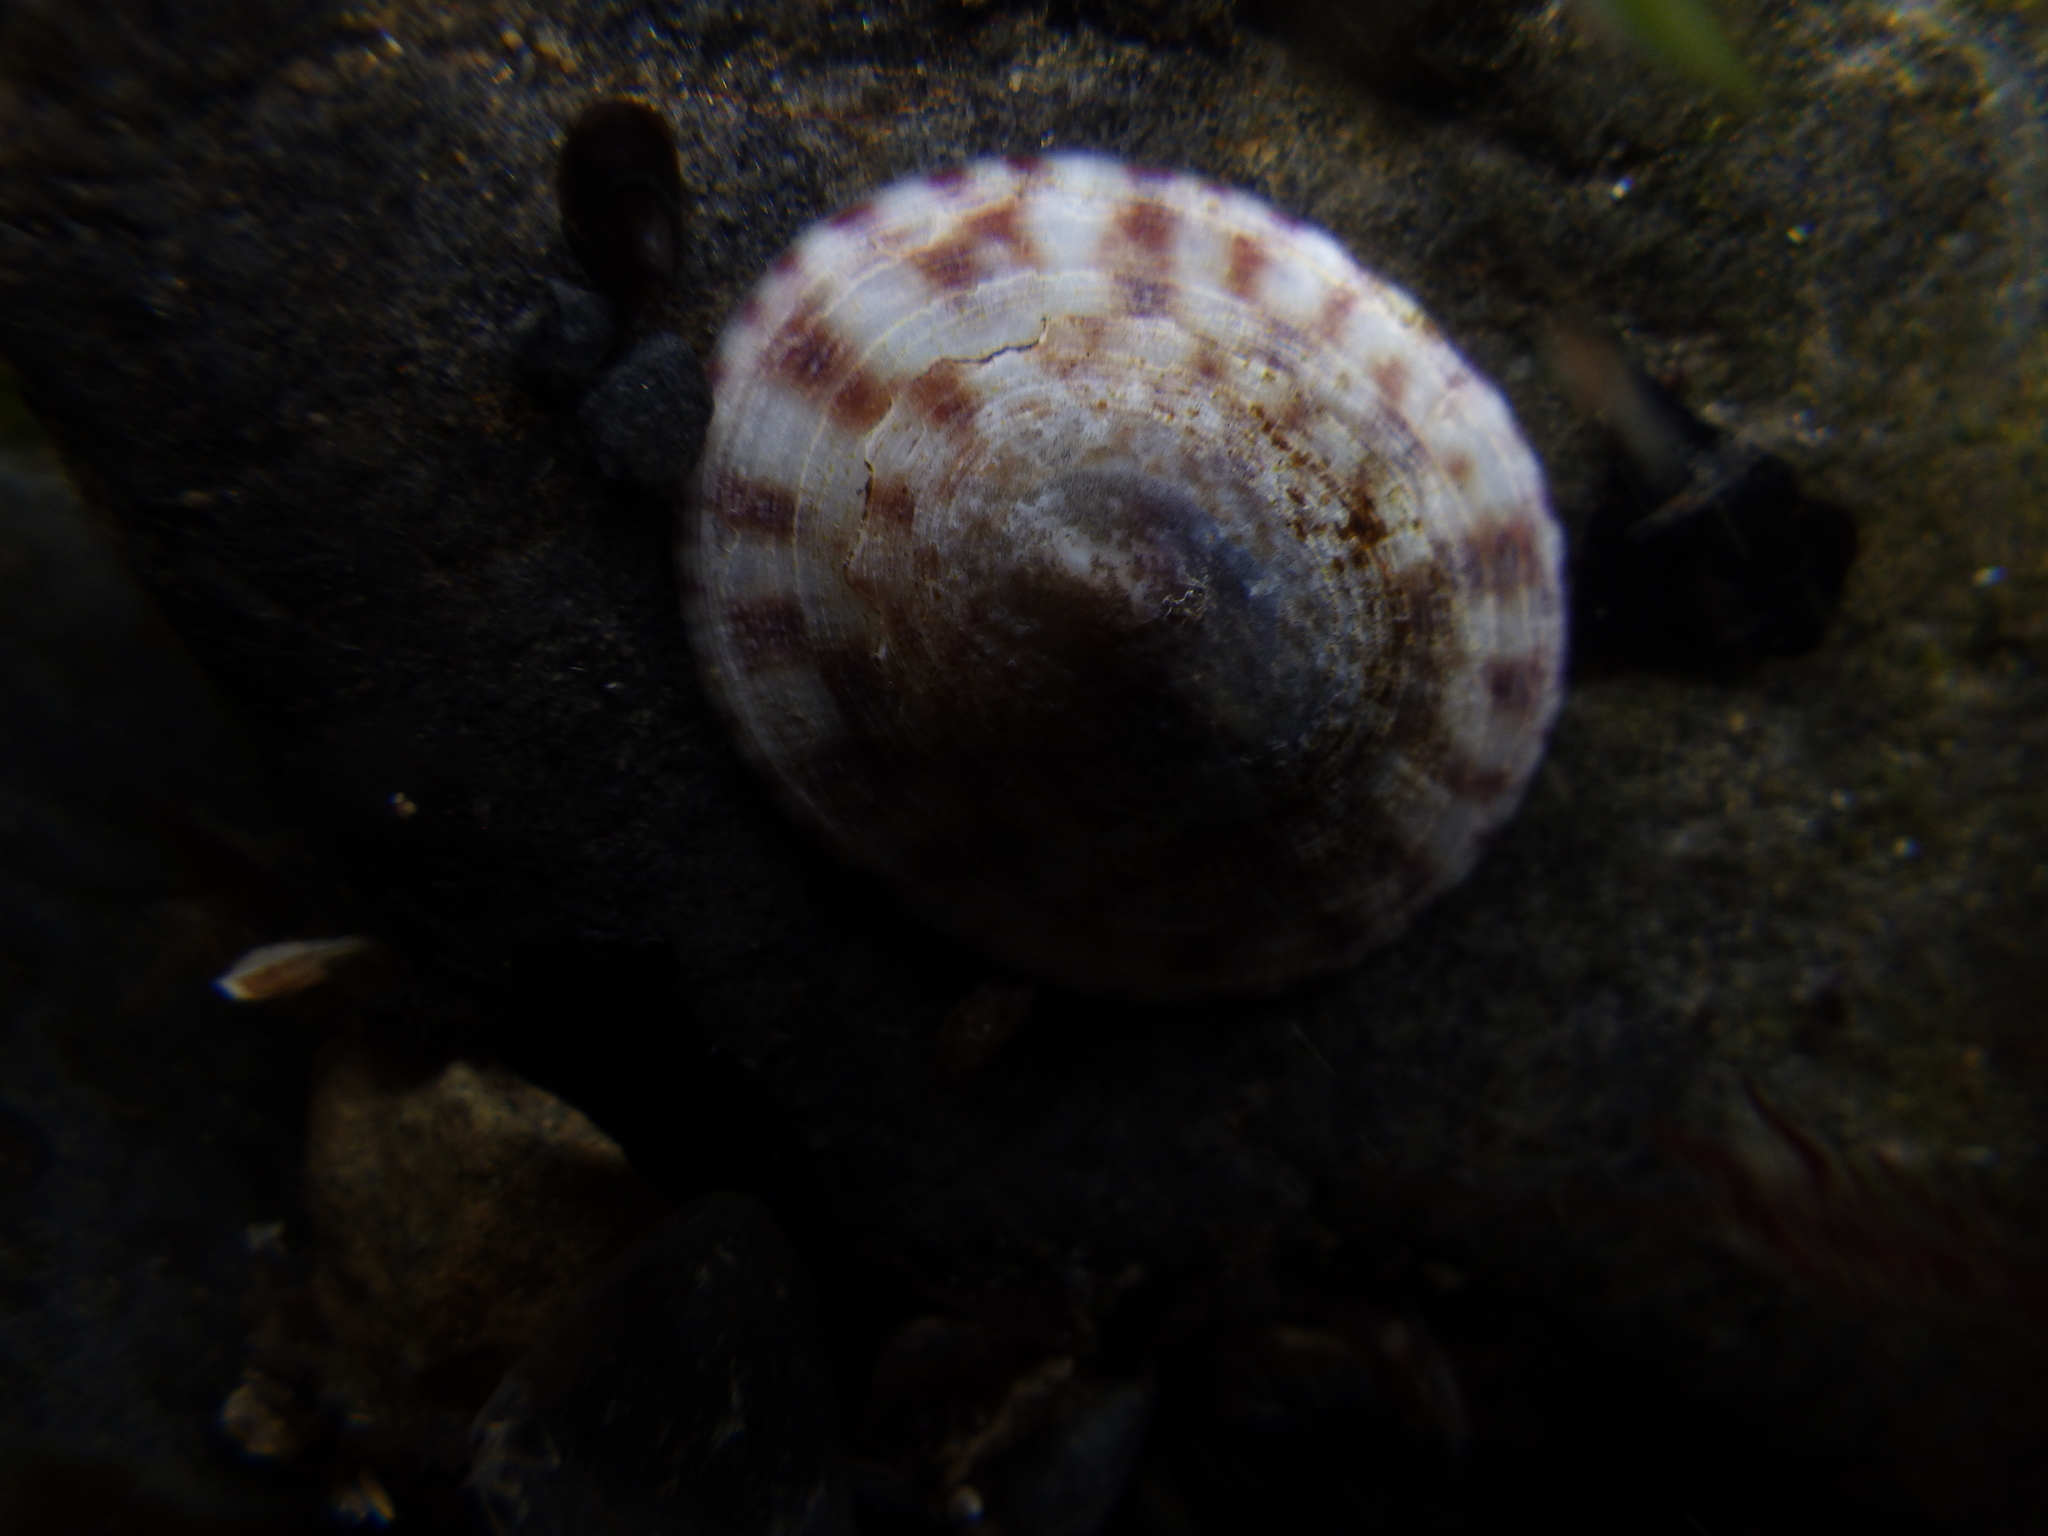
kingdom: Animalia
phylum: Mollusca
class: Gastropoda
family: Lottiidae
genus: Testudinalia
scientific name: Testudinalia testudinalis
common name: Common tortoiseshell limpet
